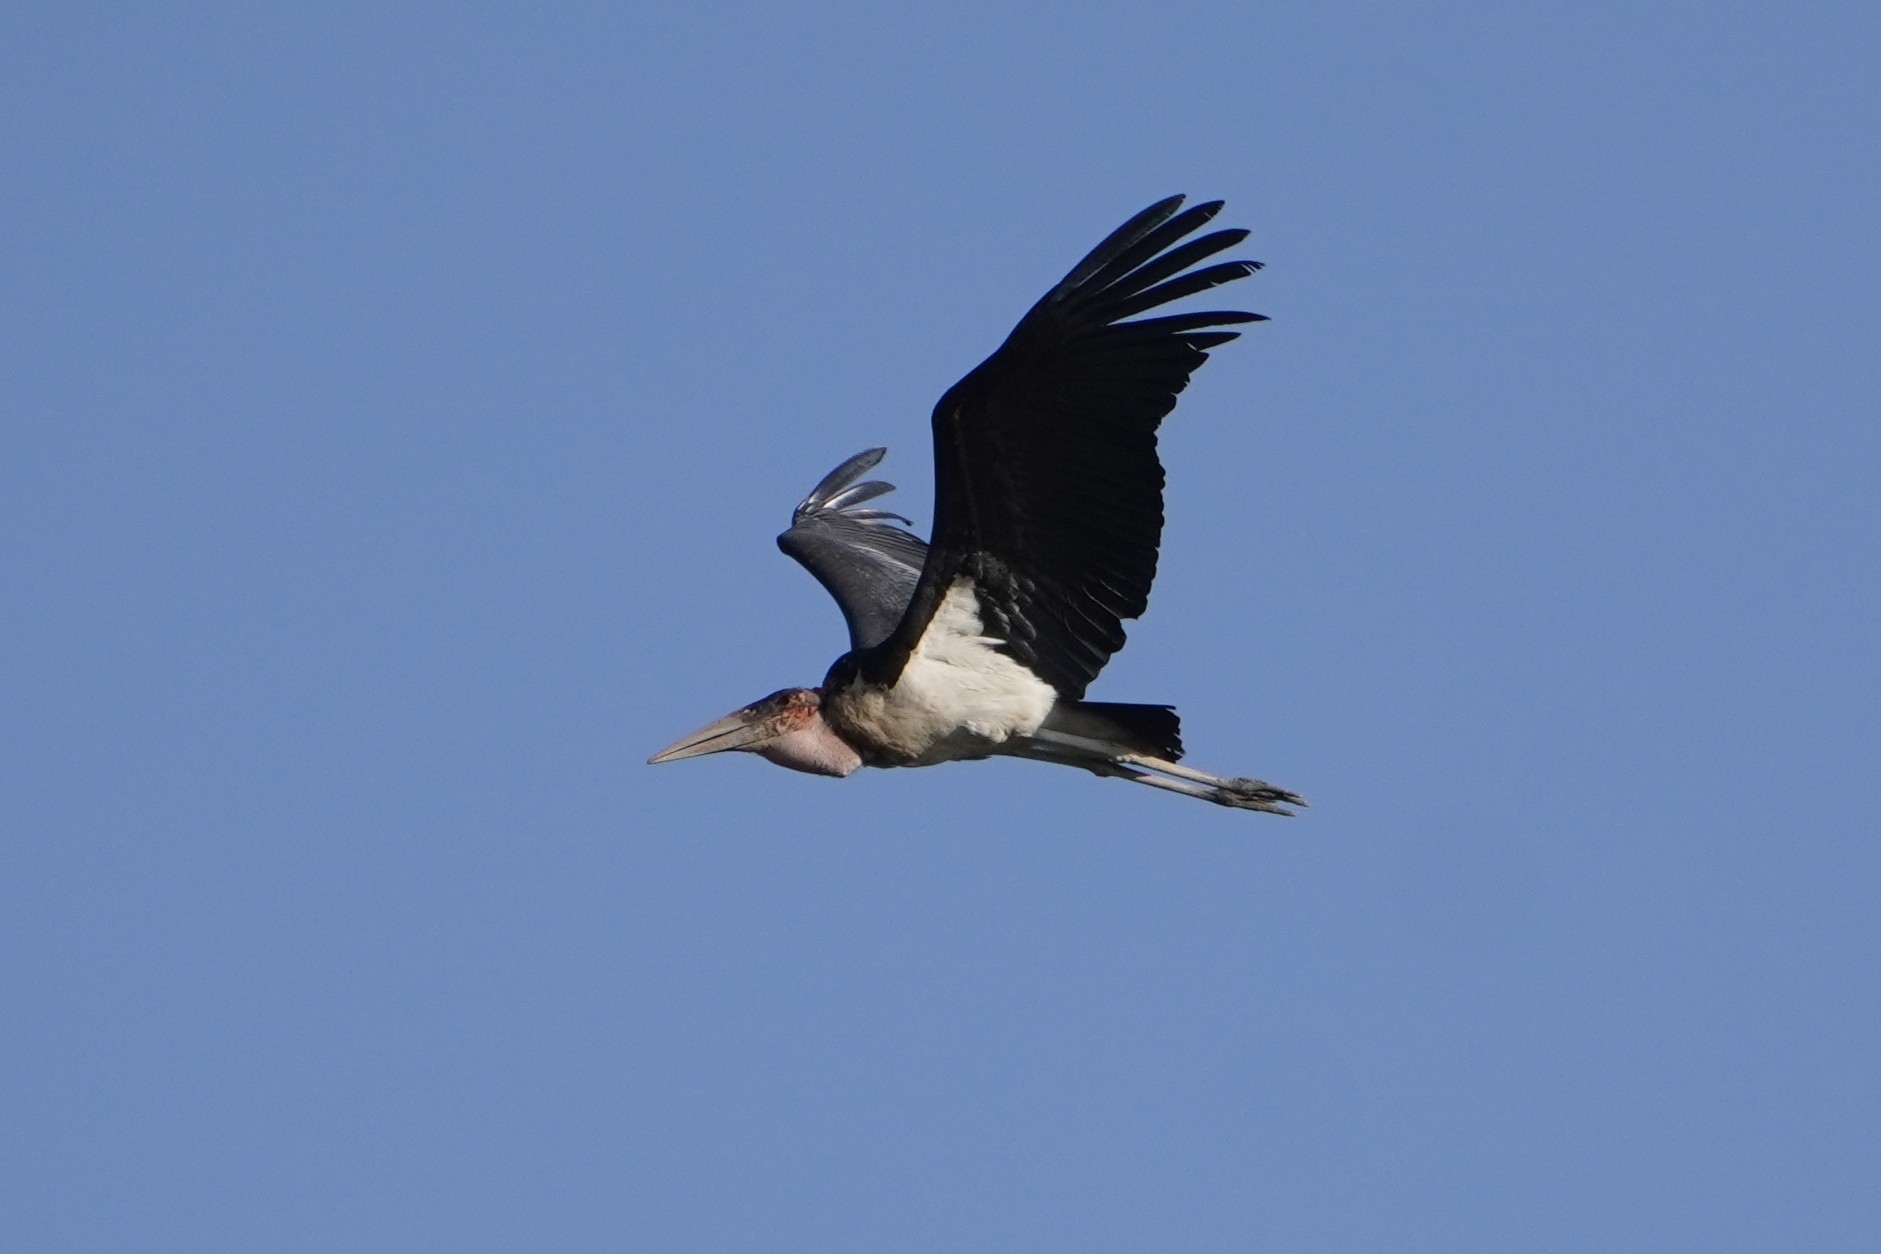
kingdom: Animalia
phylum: Chordata
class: Aves
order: Ciconiiformes
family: Ciconiidae
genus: Leptoptilos
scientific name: Leptoptilos crumenifer
